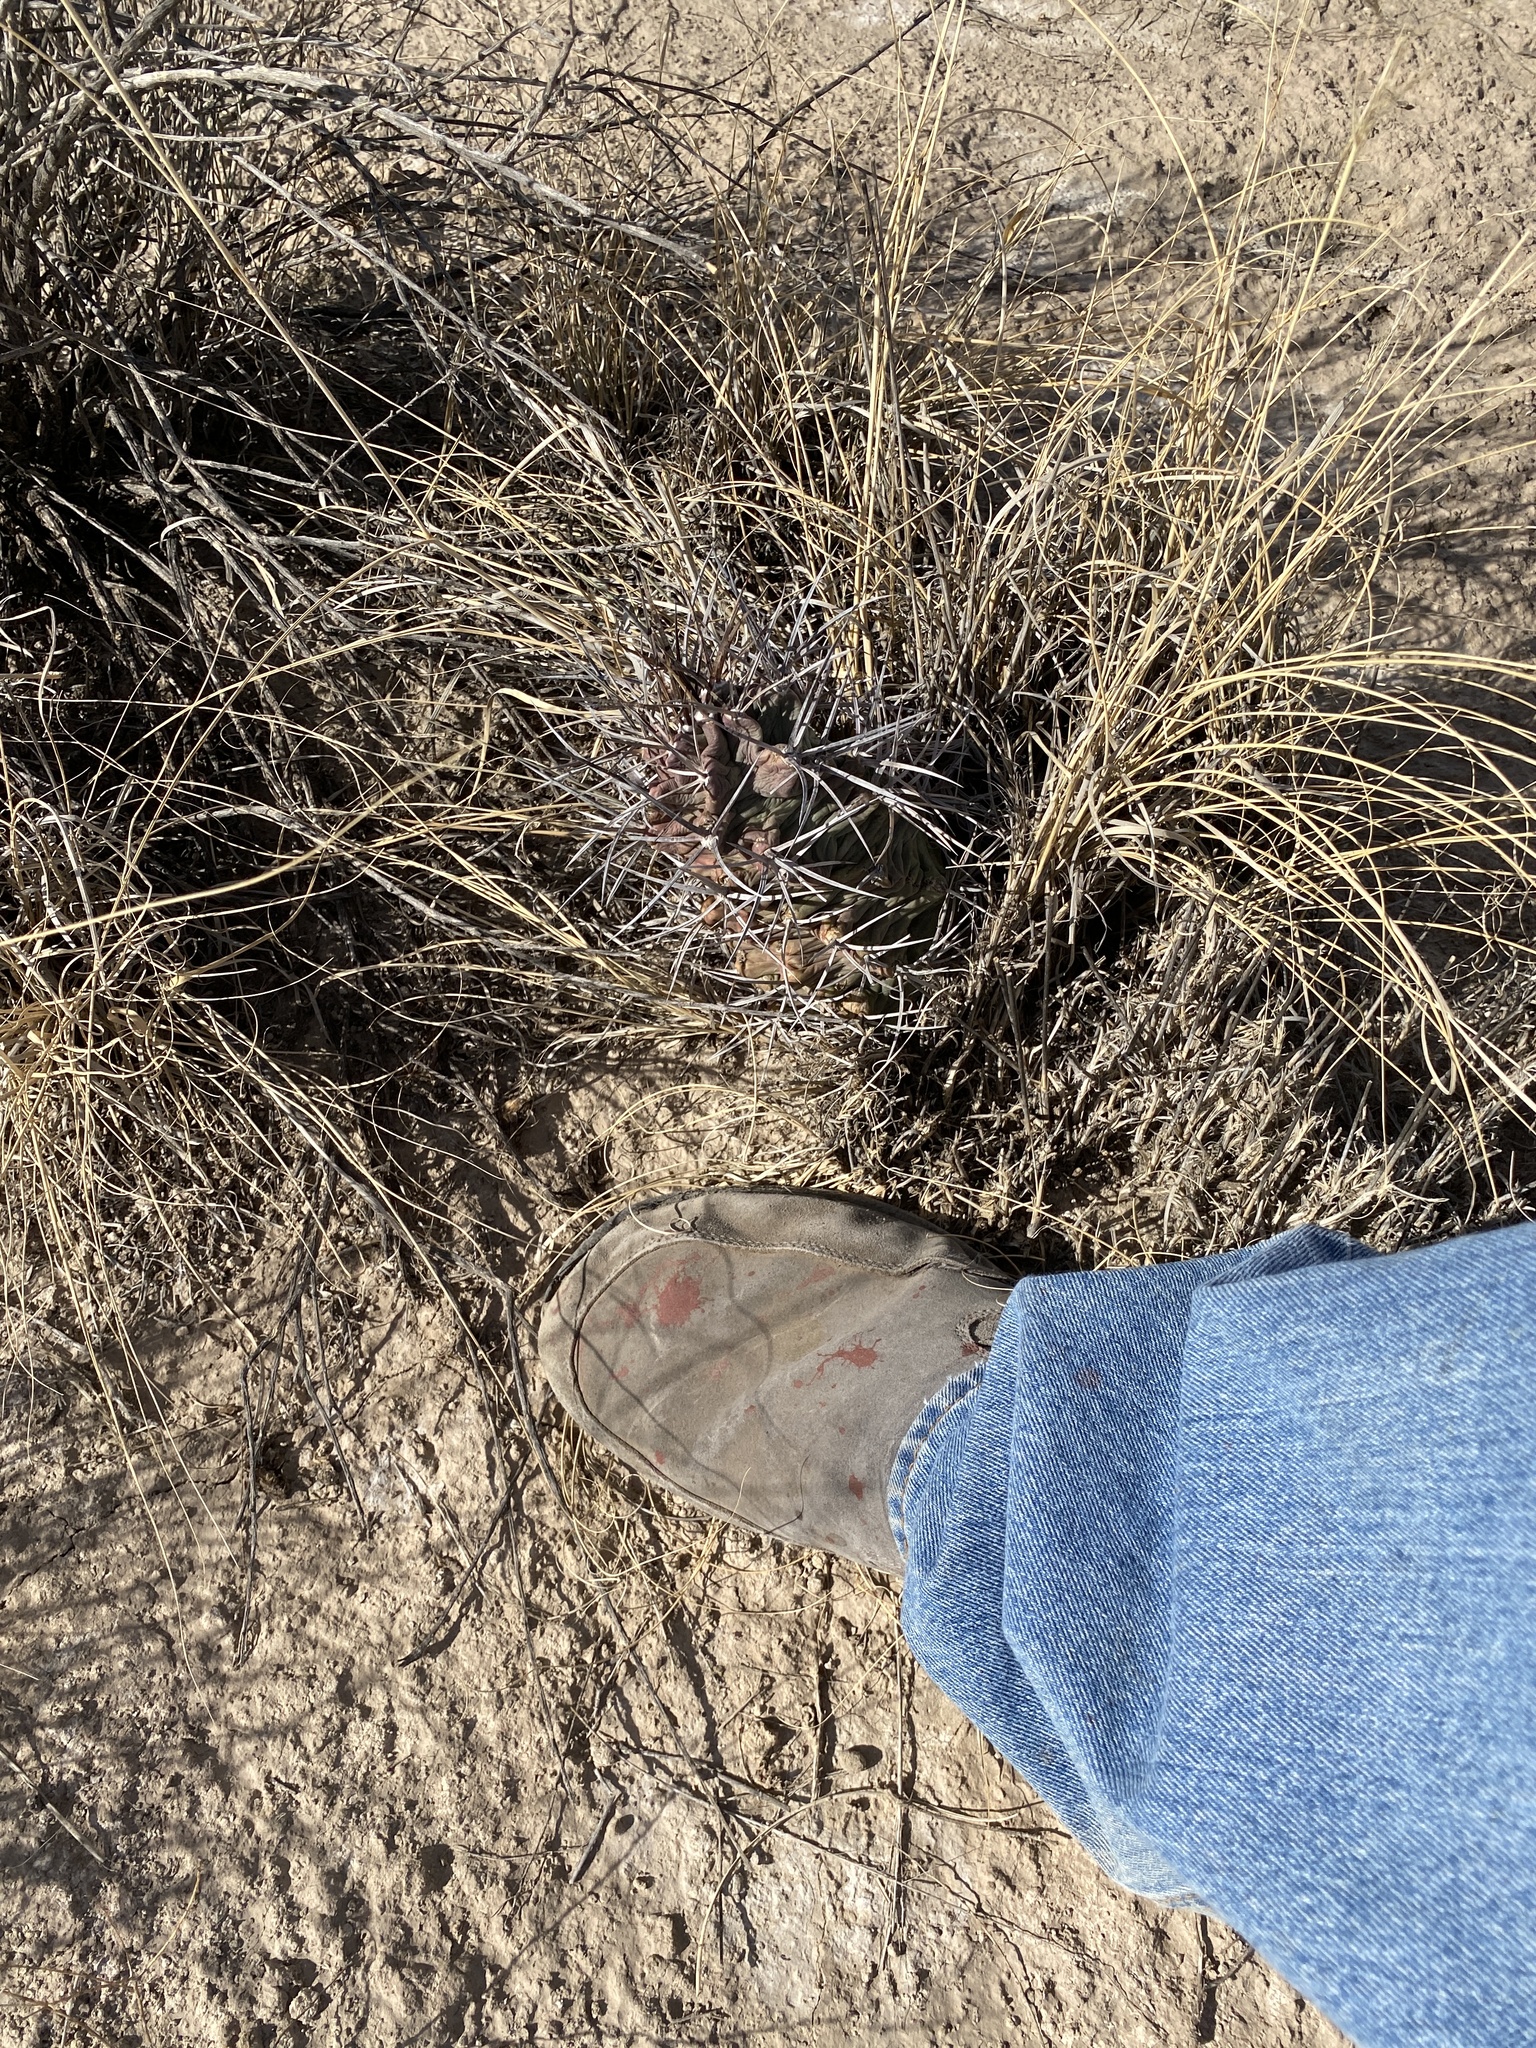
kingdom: Plantae
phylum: Tracheophyta
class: Magnoliopsida
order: Caryophyllales
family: Cactaceae
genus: Echinocereus
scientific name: Echinocereus triglochidiatus
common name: Claretcup hedgehog
